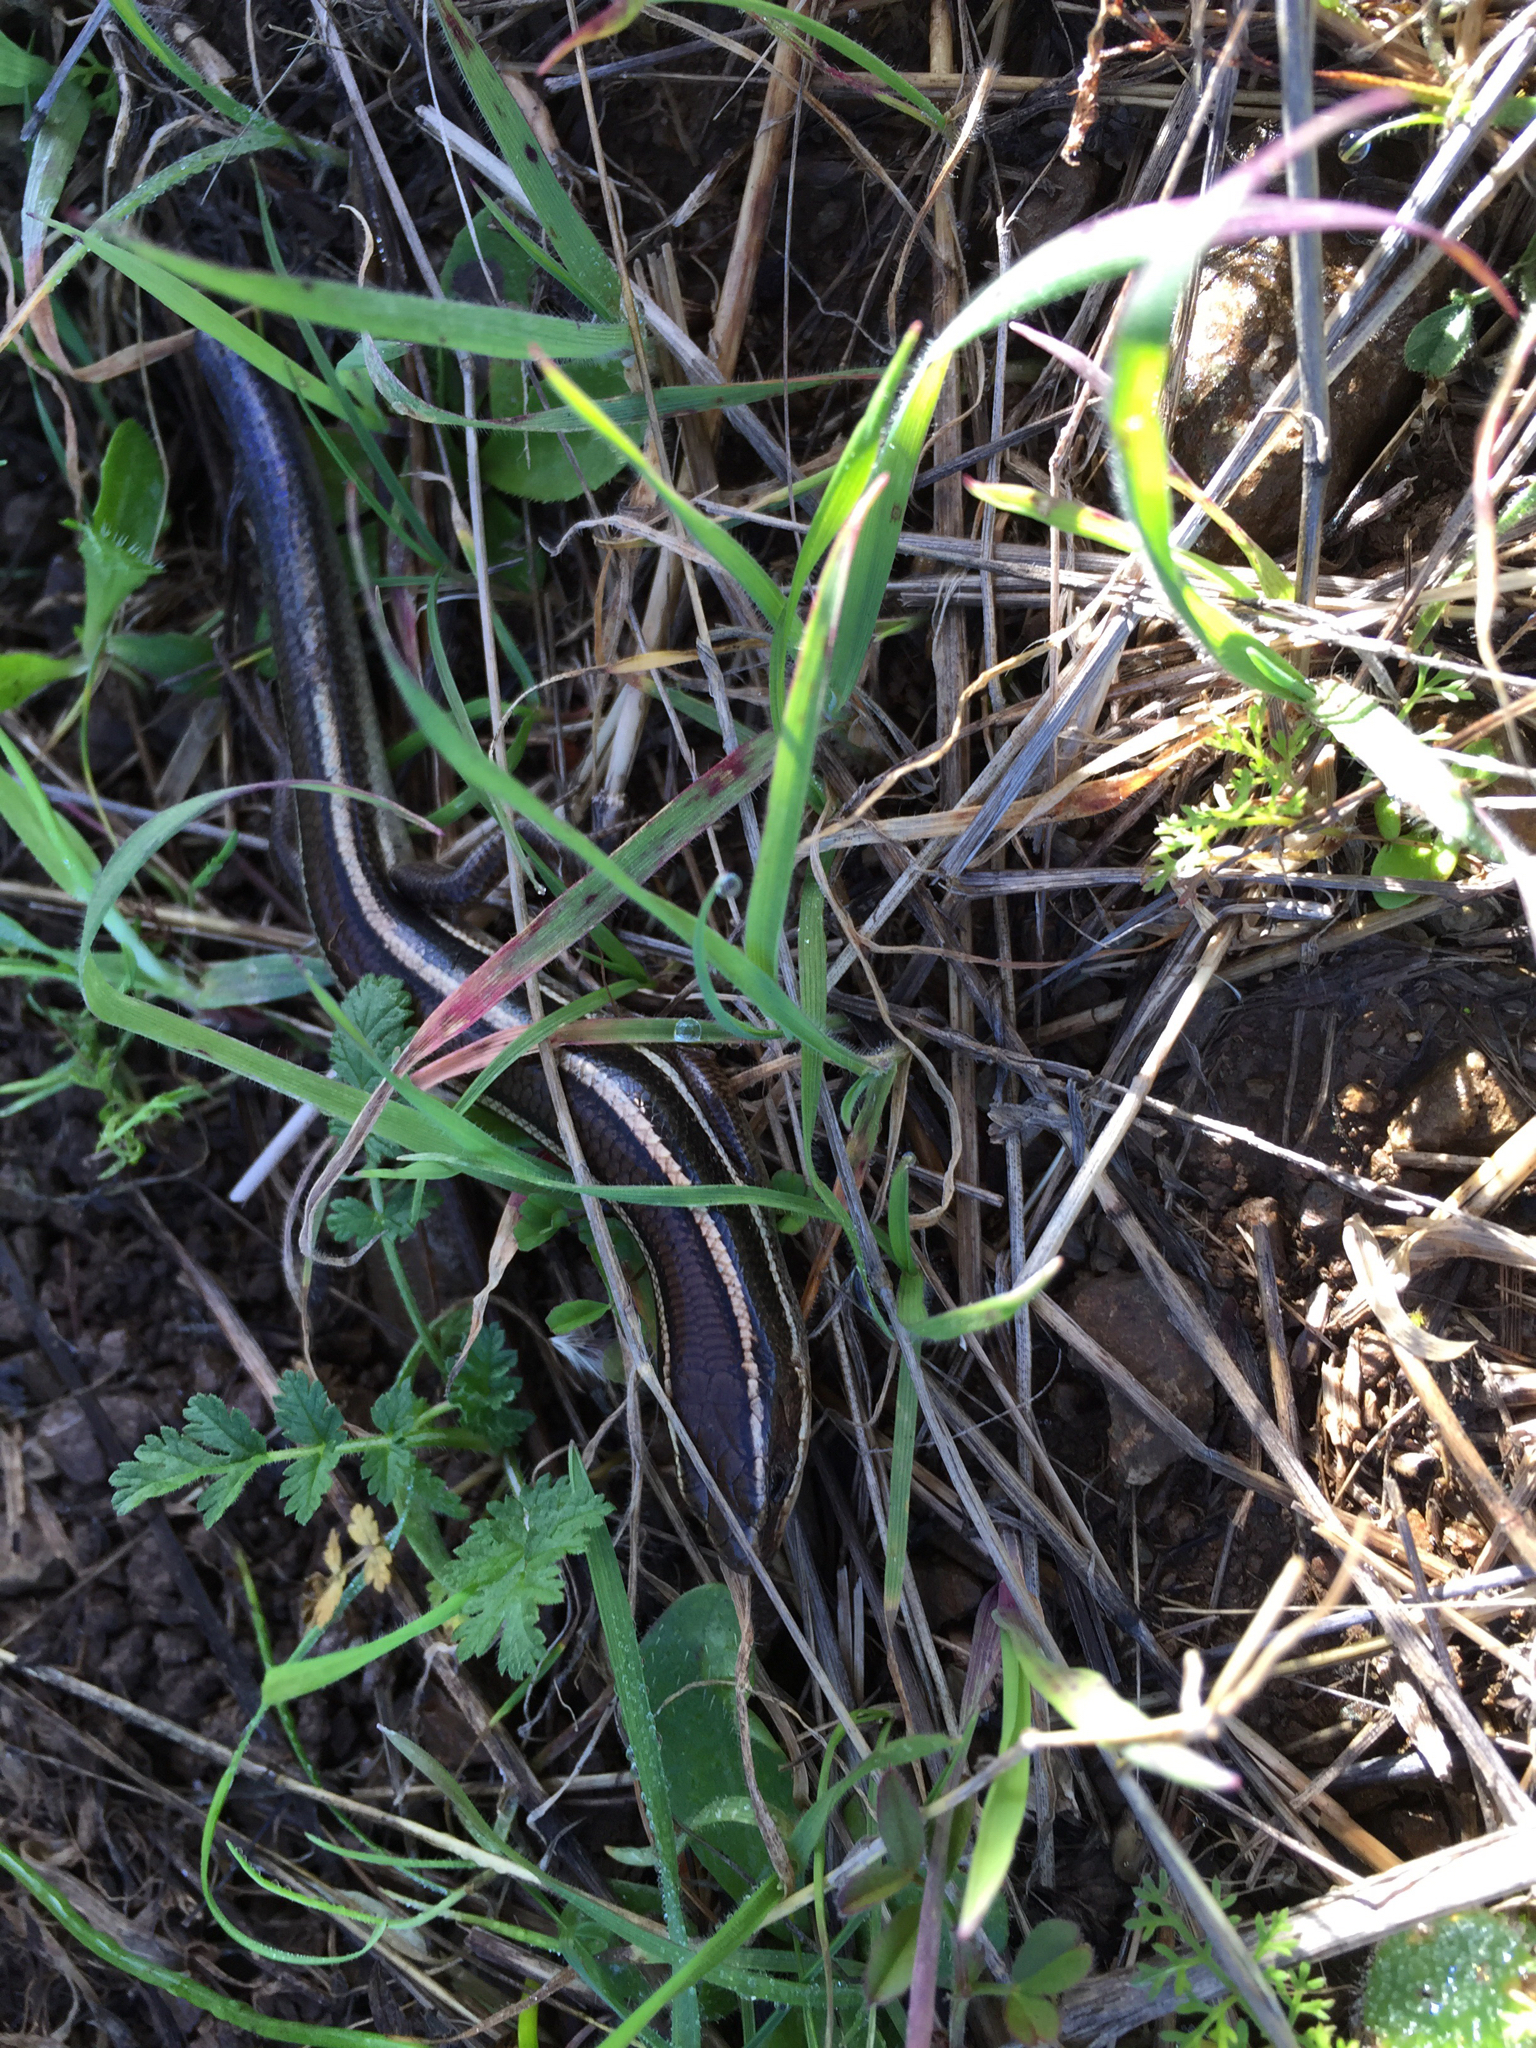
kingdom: Animalia
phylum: Chordata
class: Squamata
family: Scincidae
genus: Plestiodon
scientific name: Plestiodon skiltonianus
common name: Coronado island skink [interparietalis]
